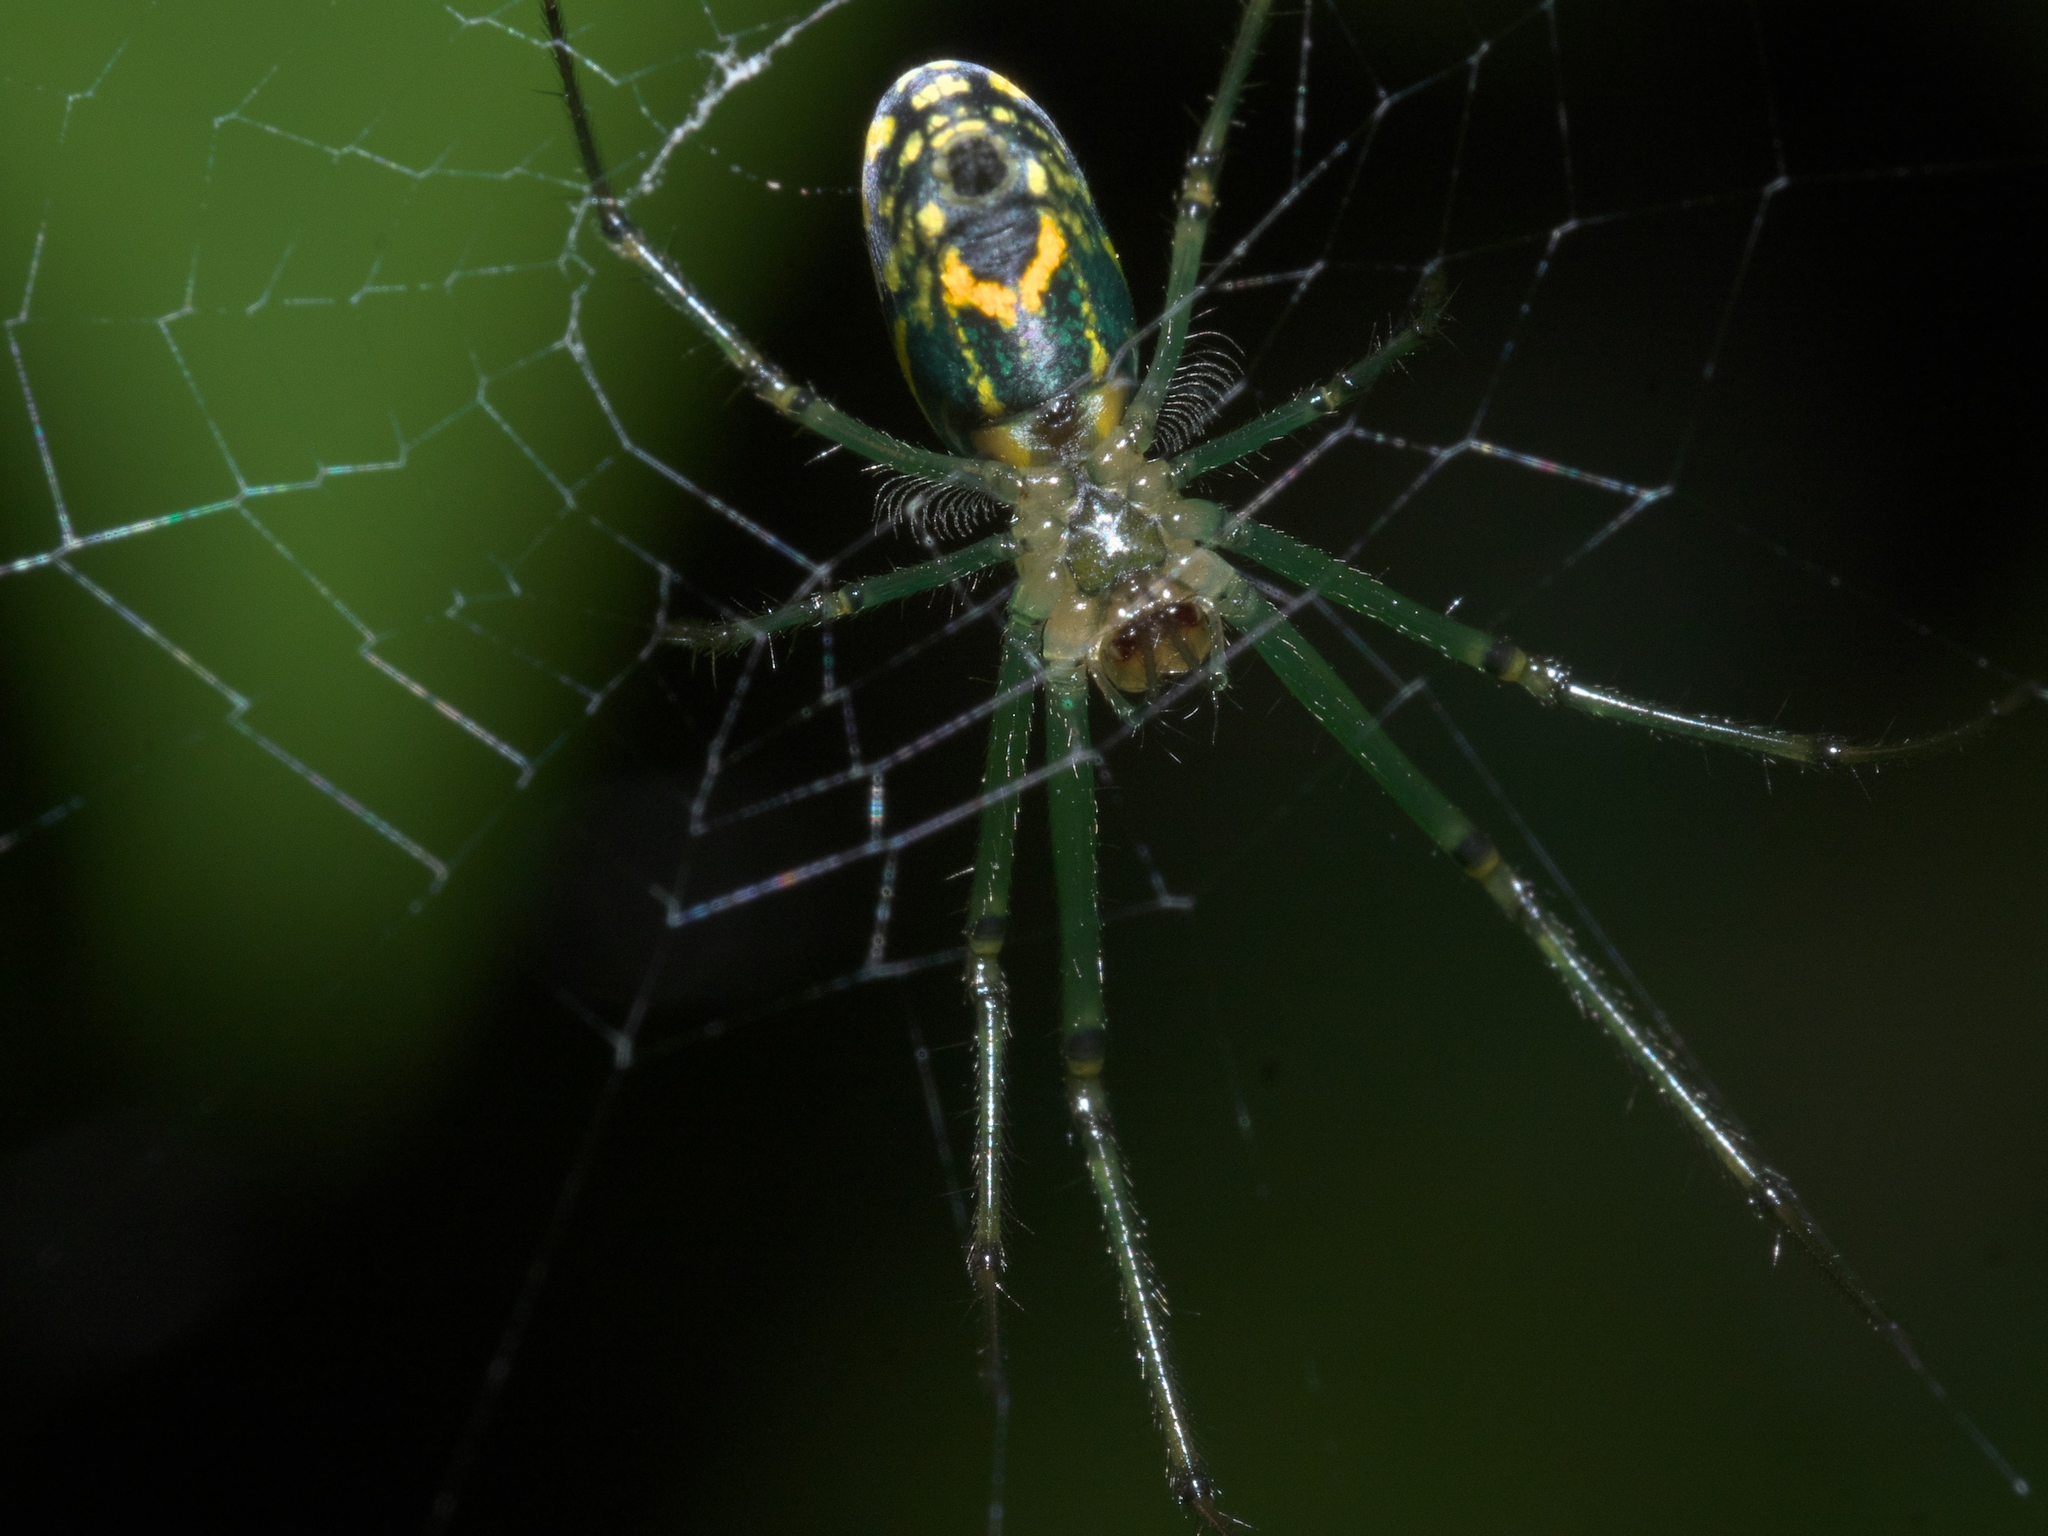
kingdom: Animalia
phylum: Arthropoda
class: Arachnida
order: Araneae
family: Tetragnathidae
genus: Leucauge
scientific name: Leucauge venusta
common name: Longjawed orb weavers
